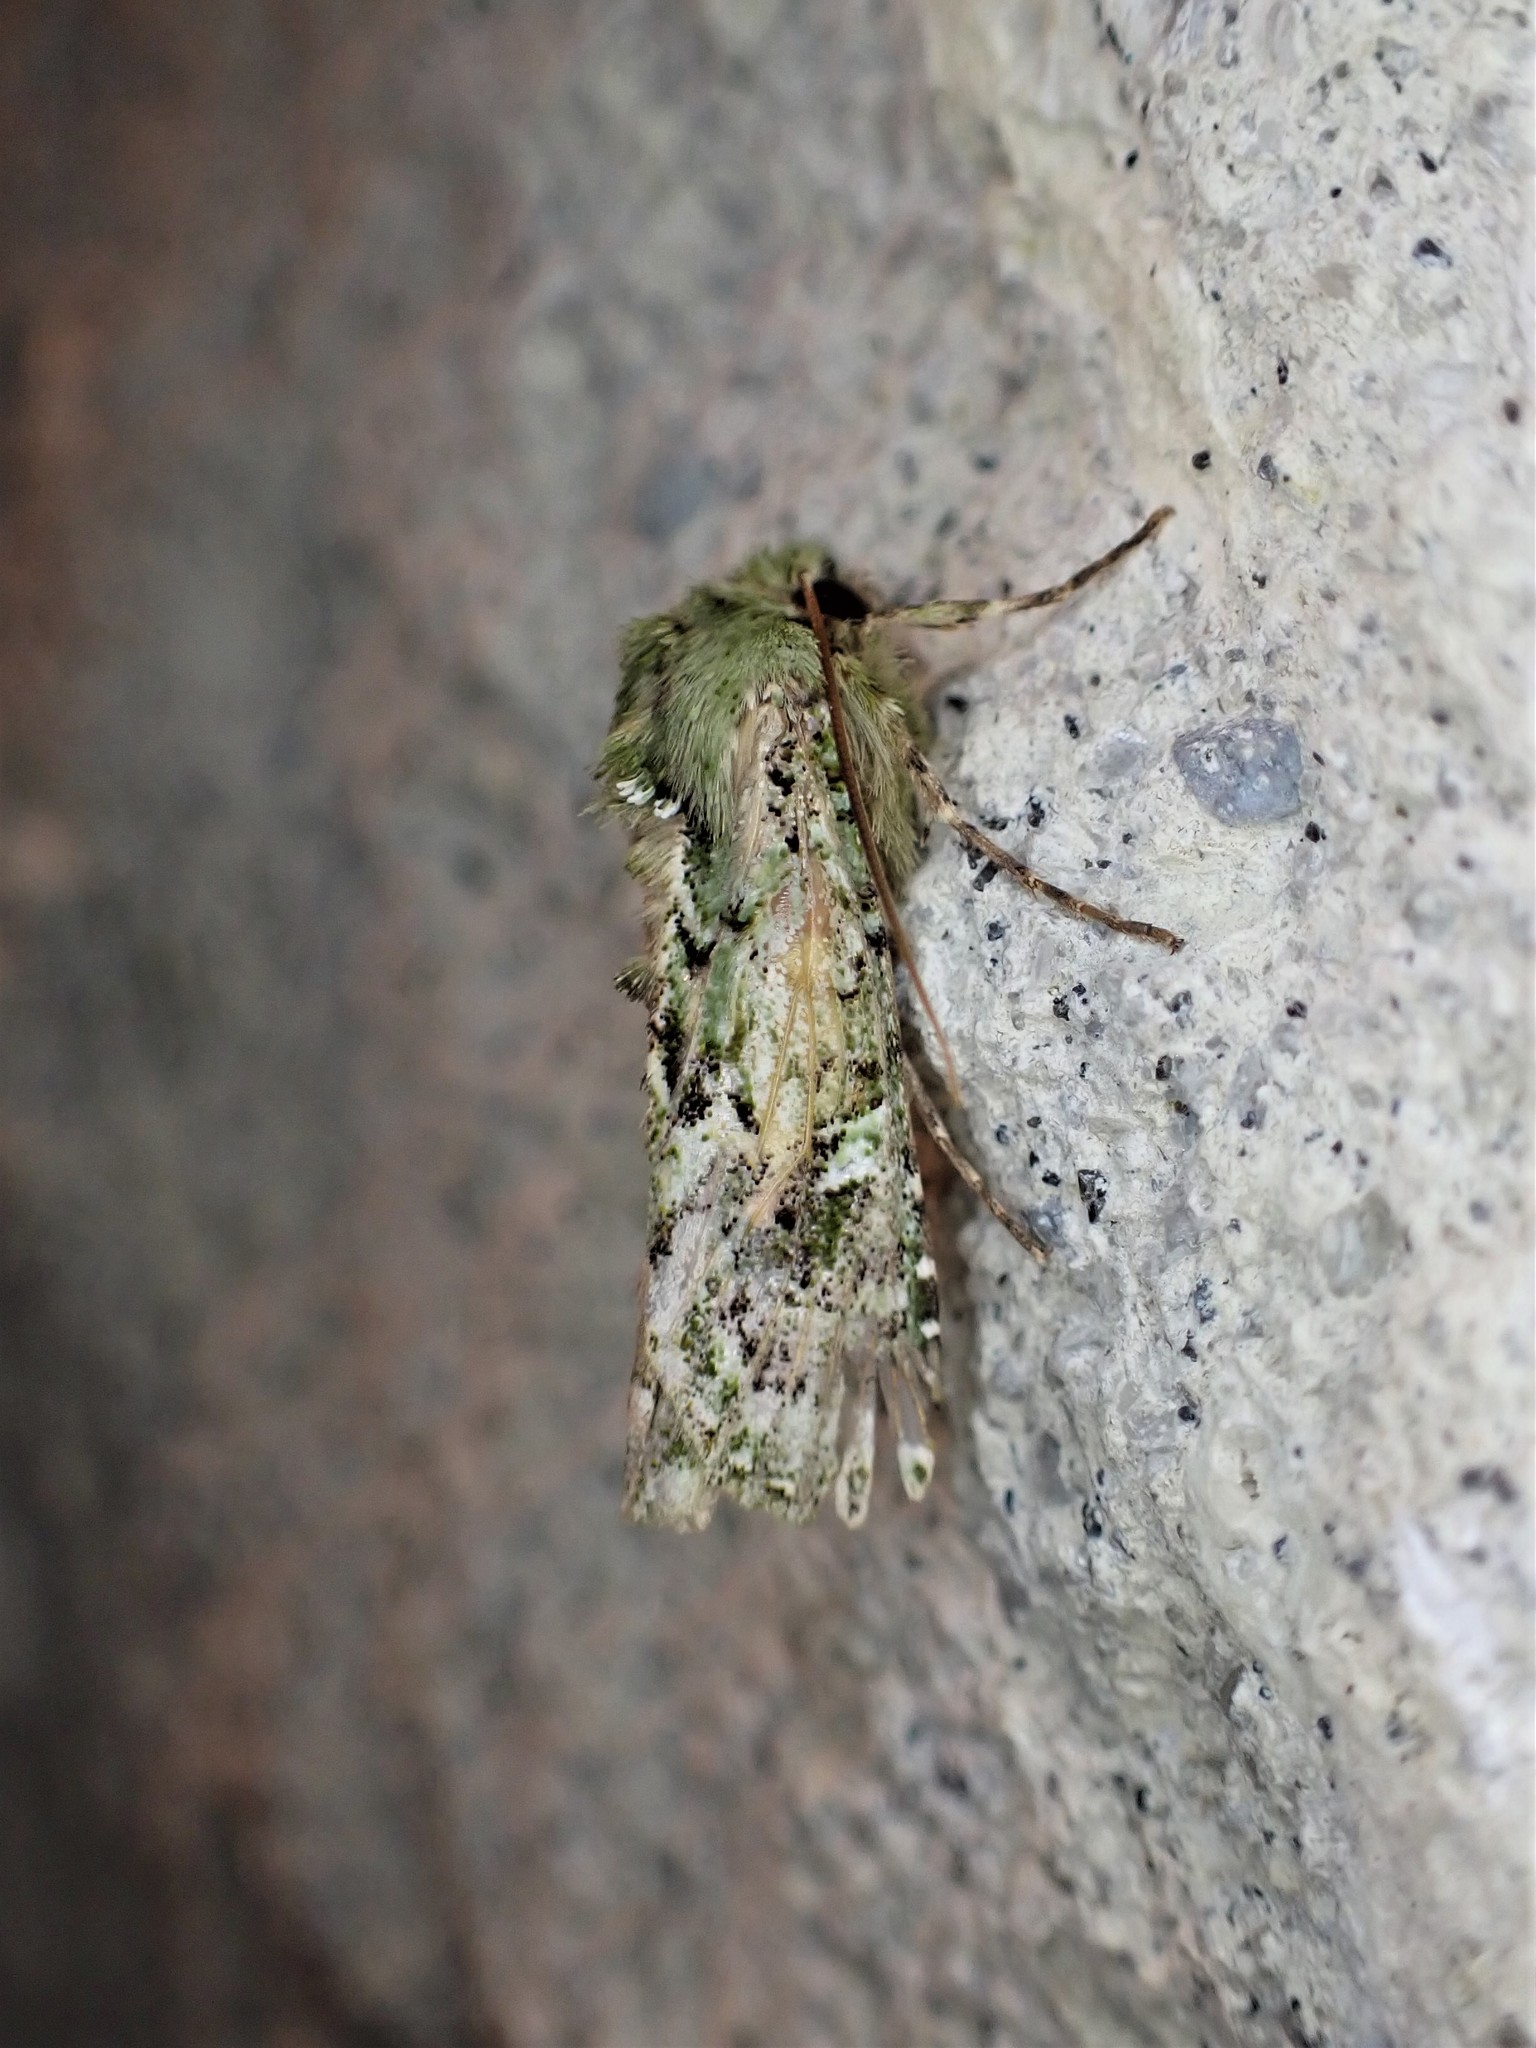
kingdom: Animalia
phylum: Arthropoda
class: Insecta
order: Lepidoptera
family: Noctuidae
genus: Feredayia
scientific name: Feredayia grammosa
